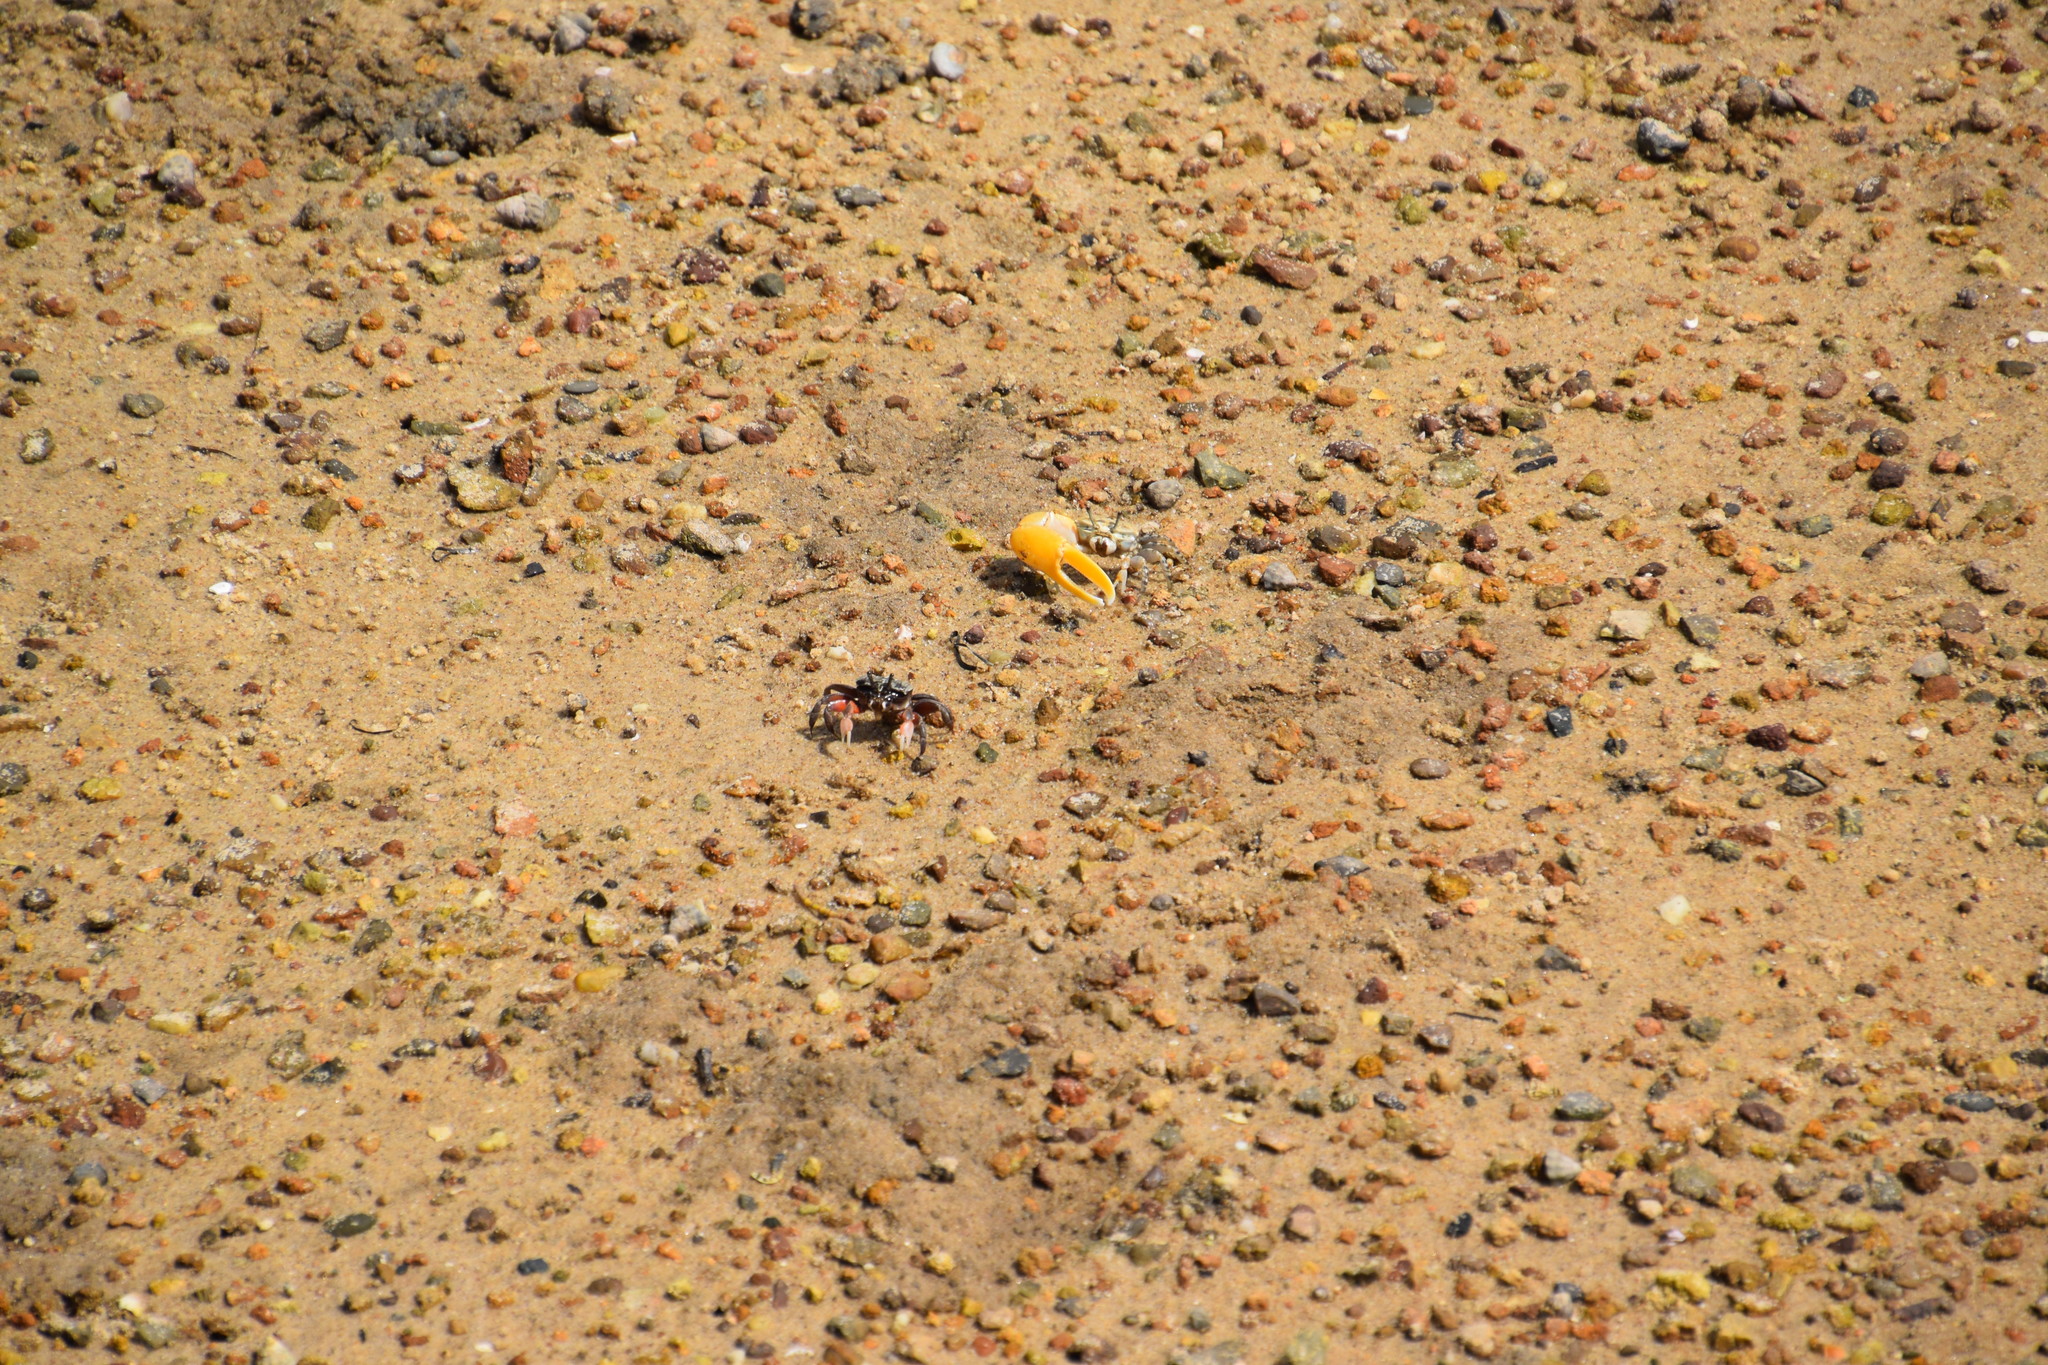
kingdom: Animalia
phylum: Arthropoda
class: Malacostraca
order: Decapoda
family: Ocypodidae
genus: Austruca
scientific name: Austruca perplexa
